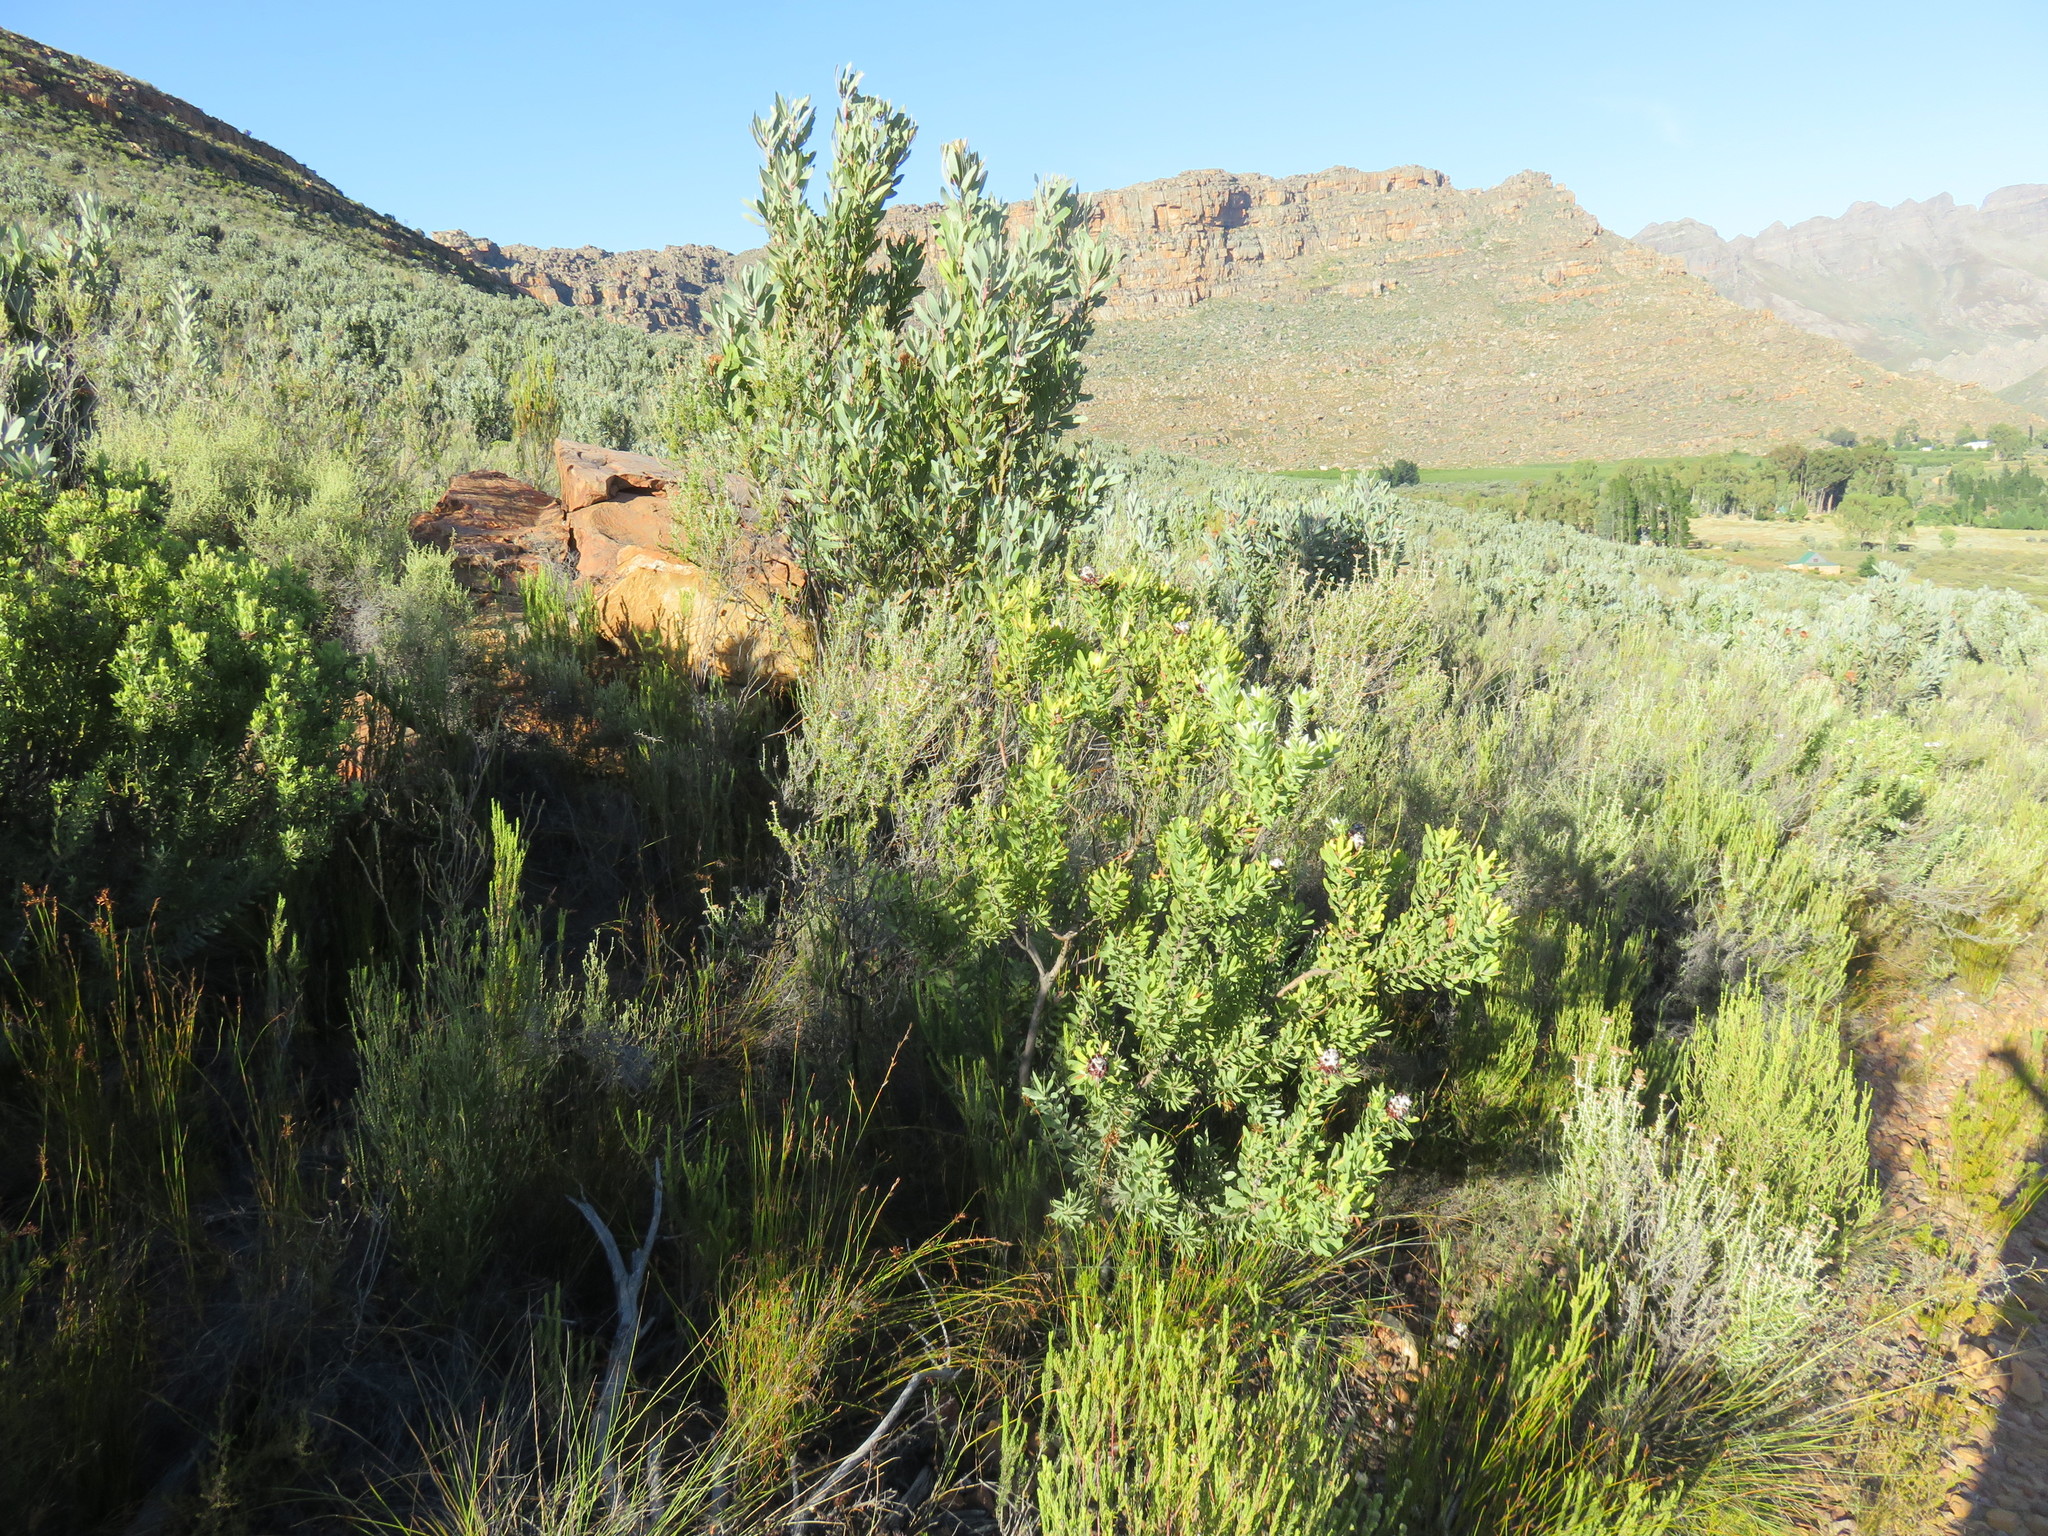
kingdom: Plantae
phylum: Tracheophyta
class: Magnoliopsida
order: Proteales
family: Proteaceae
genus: Protea
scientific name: Protea laurifolia
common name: Grey-leaf sugarbsh
